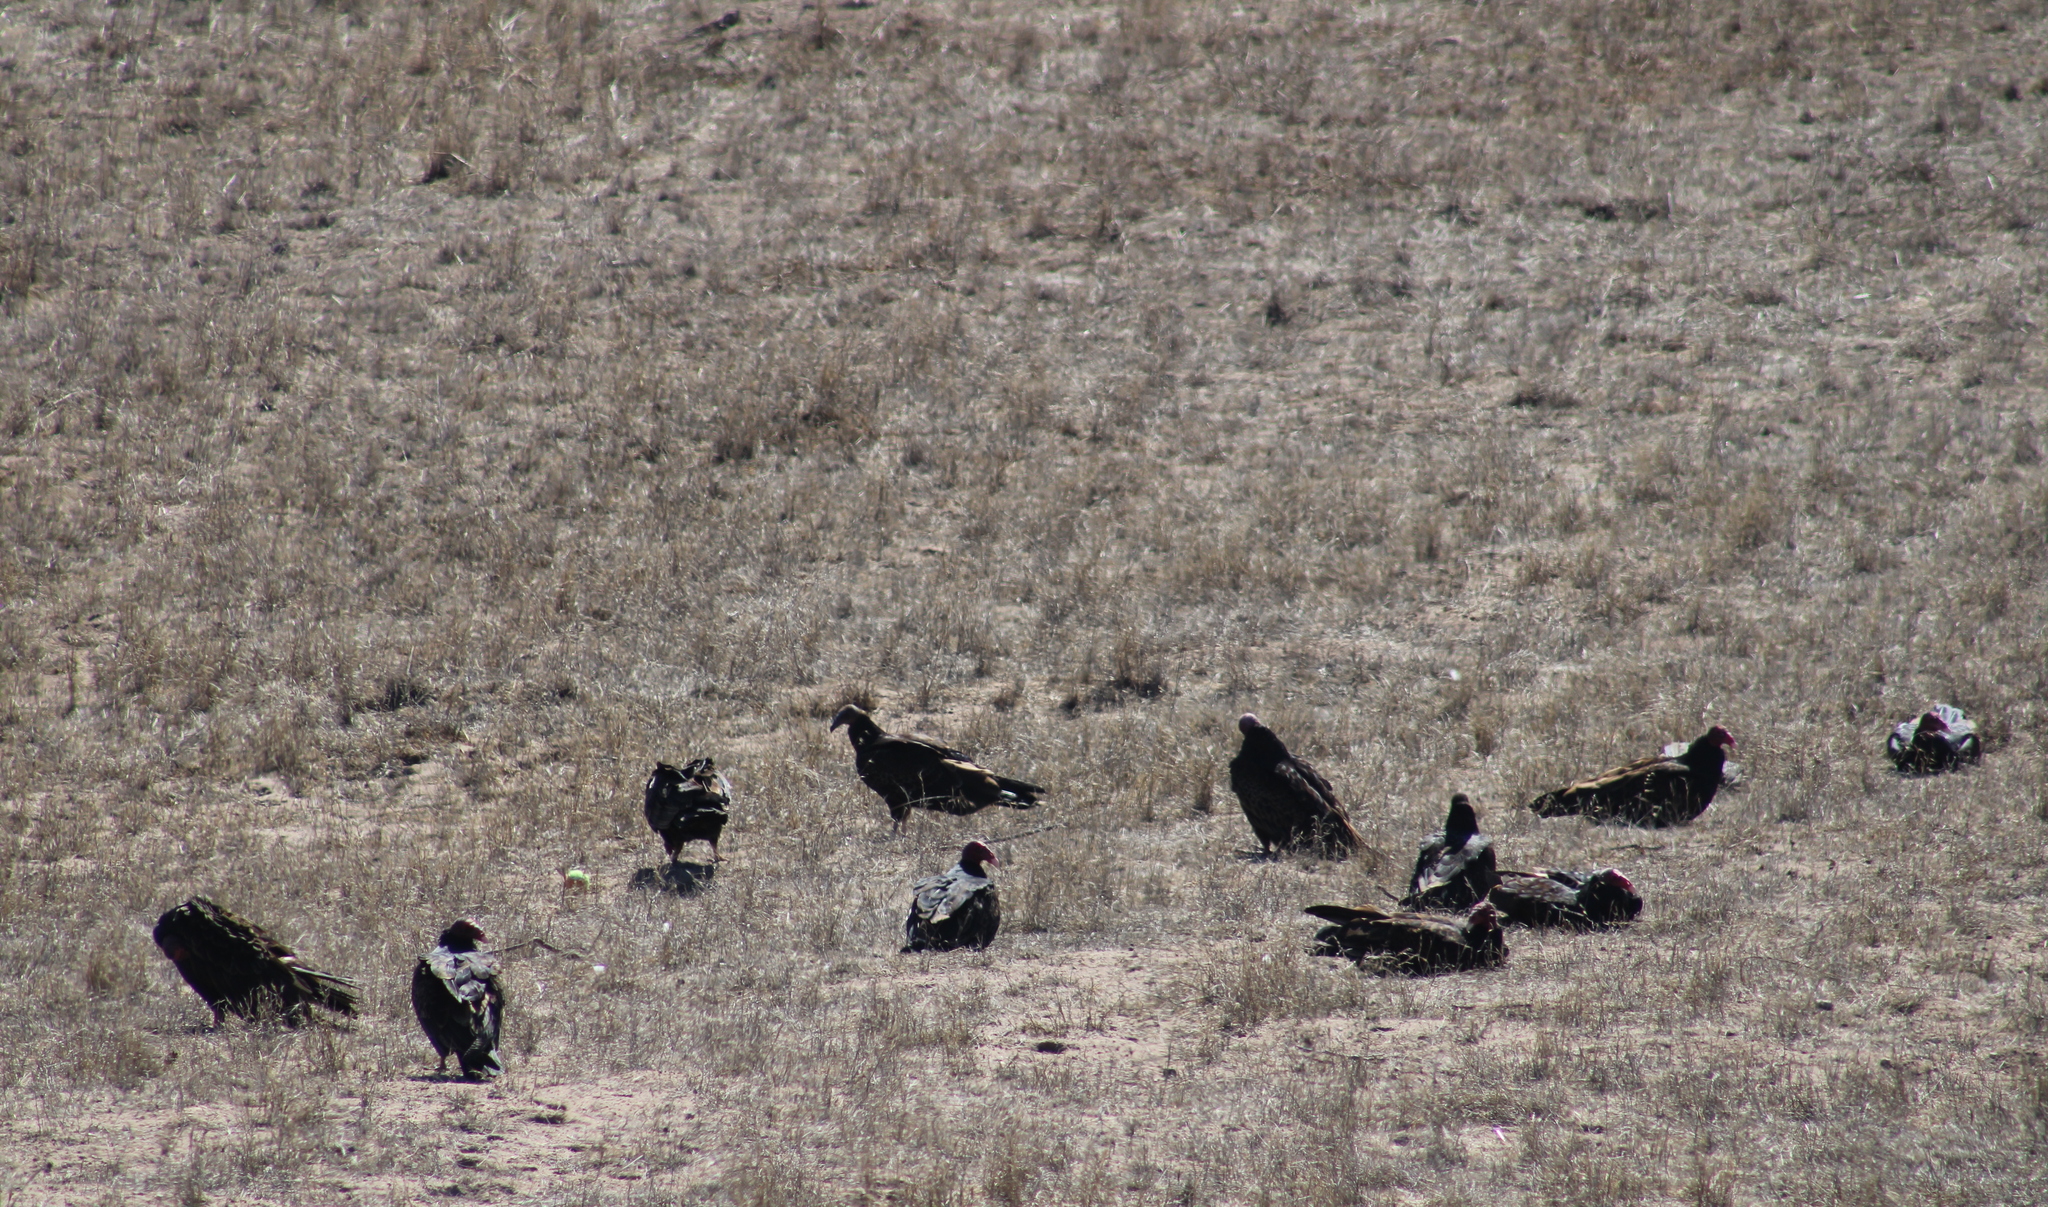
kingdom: Animalia
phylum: Chordata
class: Aves
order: Accipitriformes
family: Cathartidae
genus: Cathartes
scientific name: Cathartes aura
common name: Turkey vulture
